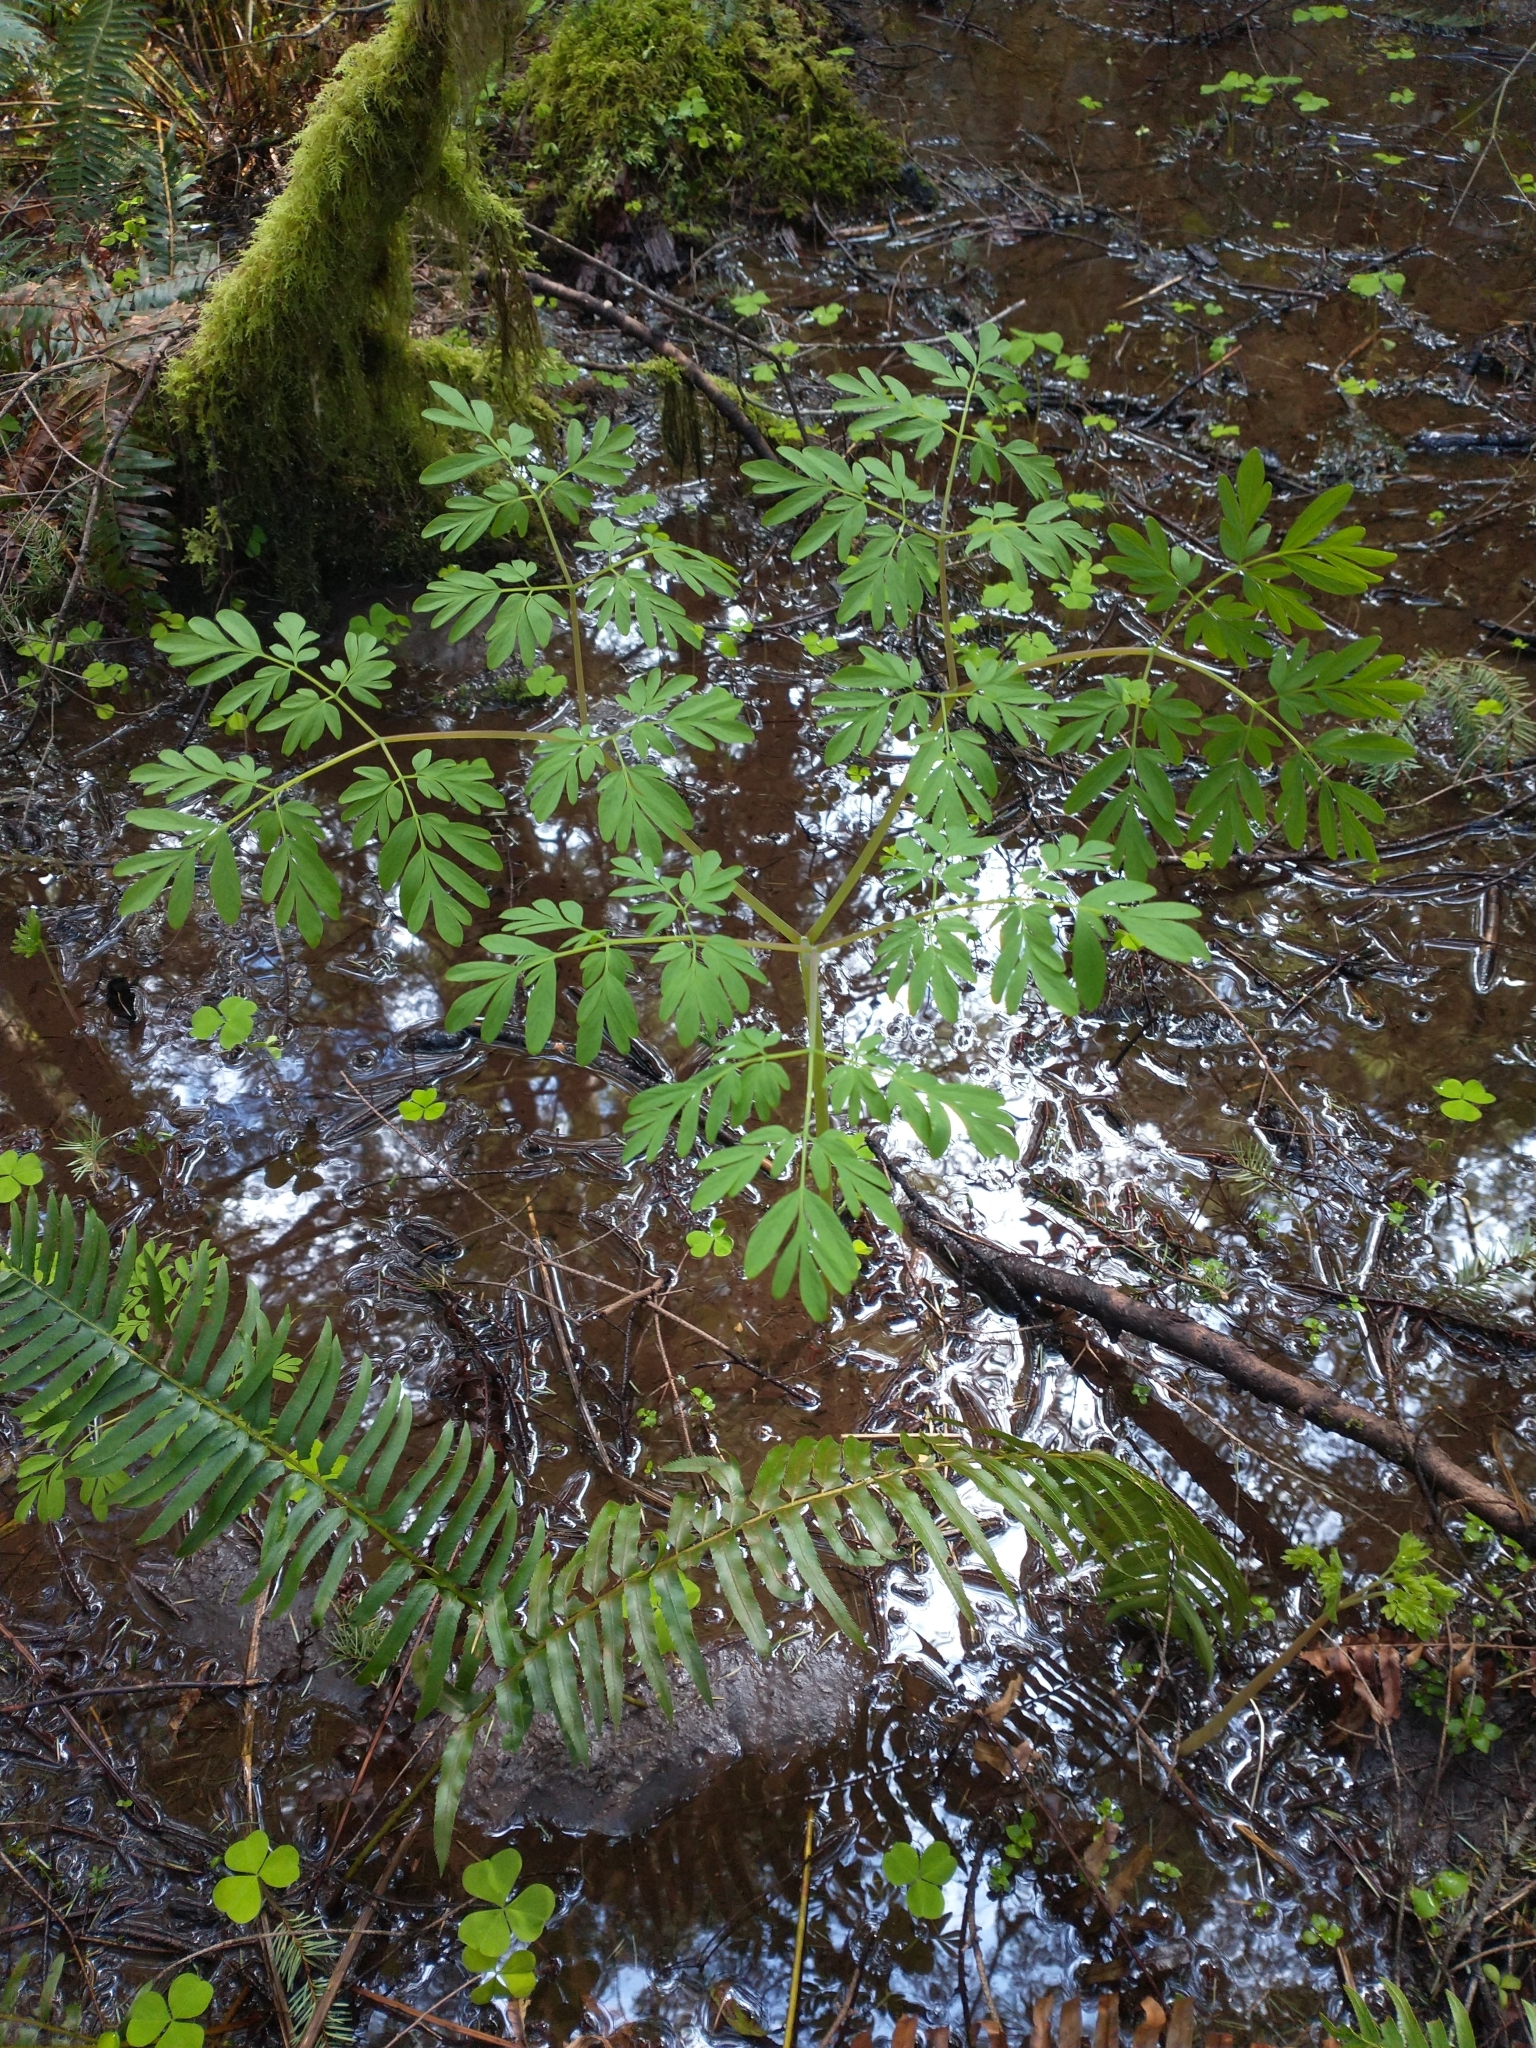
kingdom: Plantae
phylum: Tracheophyta
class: Magnoliopsida
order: Ranunculales
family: Papaveraceae
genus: Corydalis
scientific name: Corydalis scouleri
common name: Scouler's corydalis
